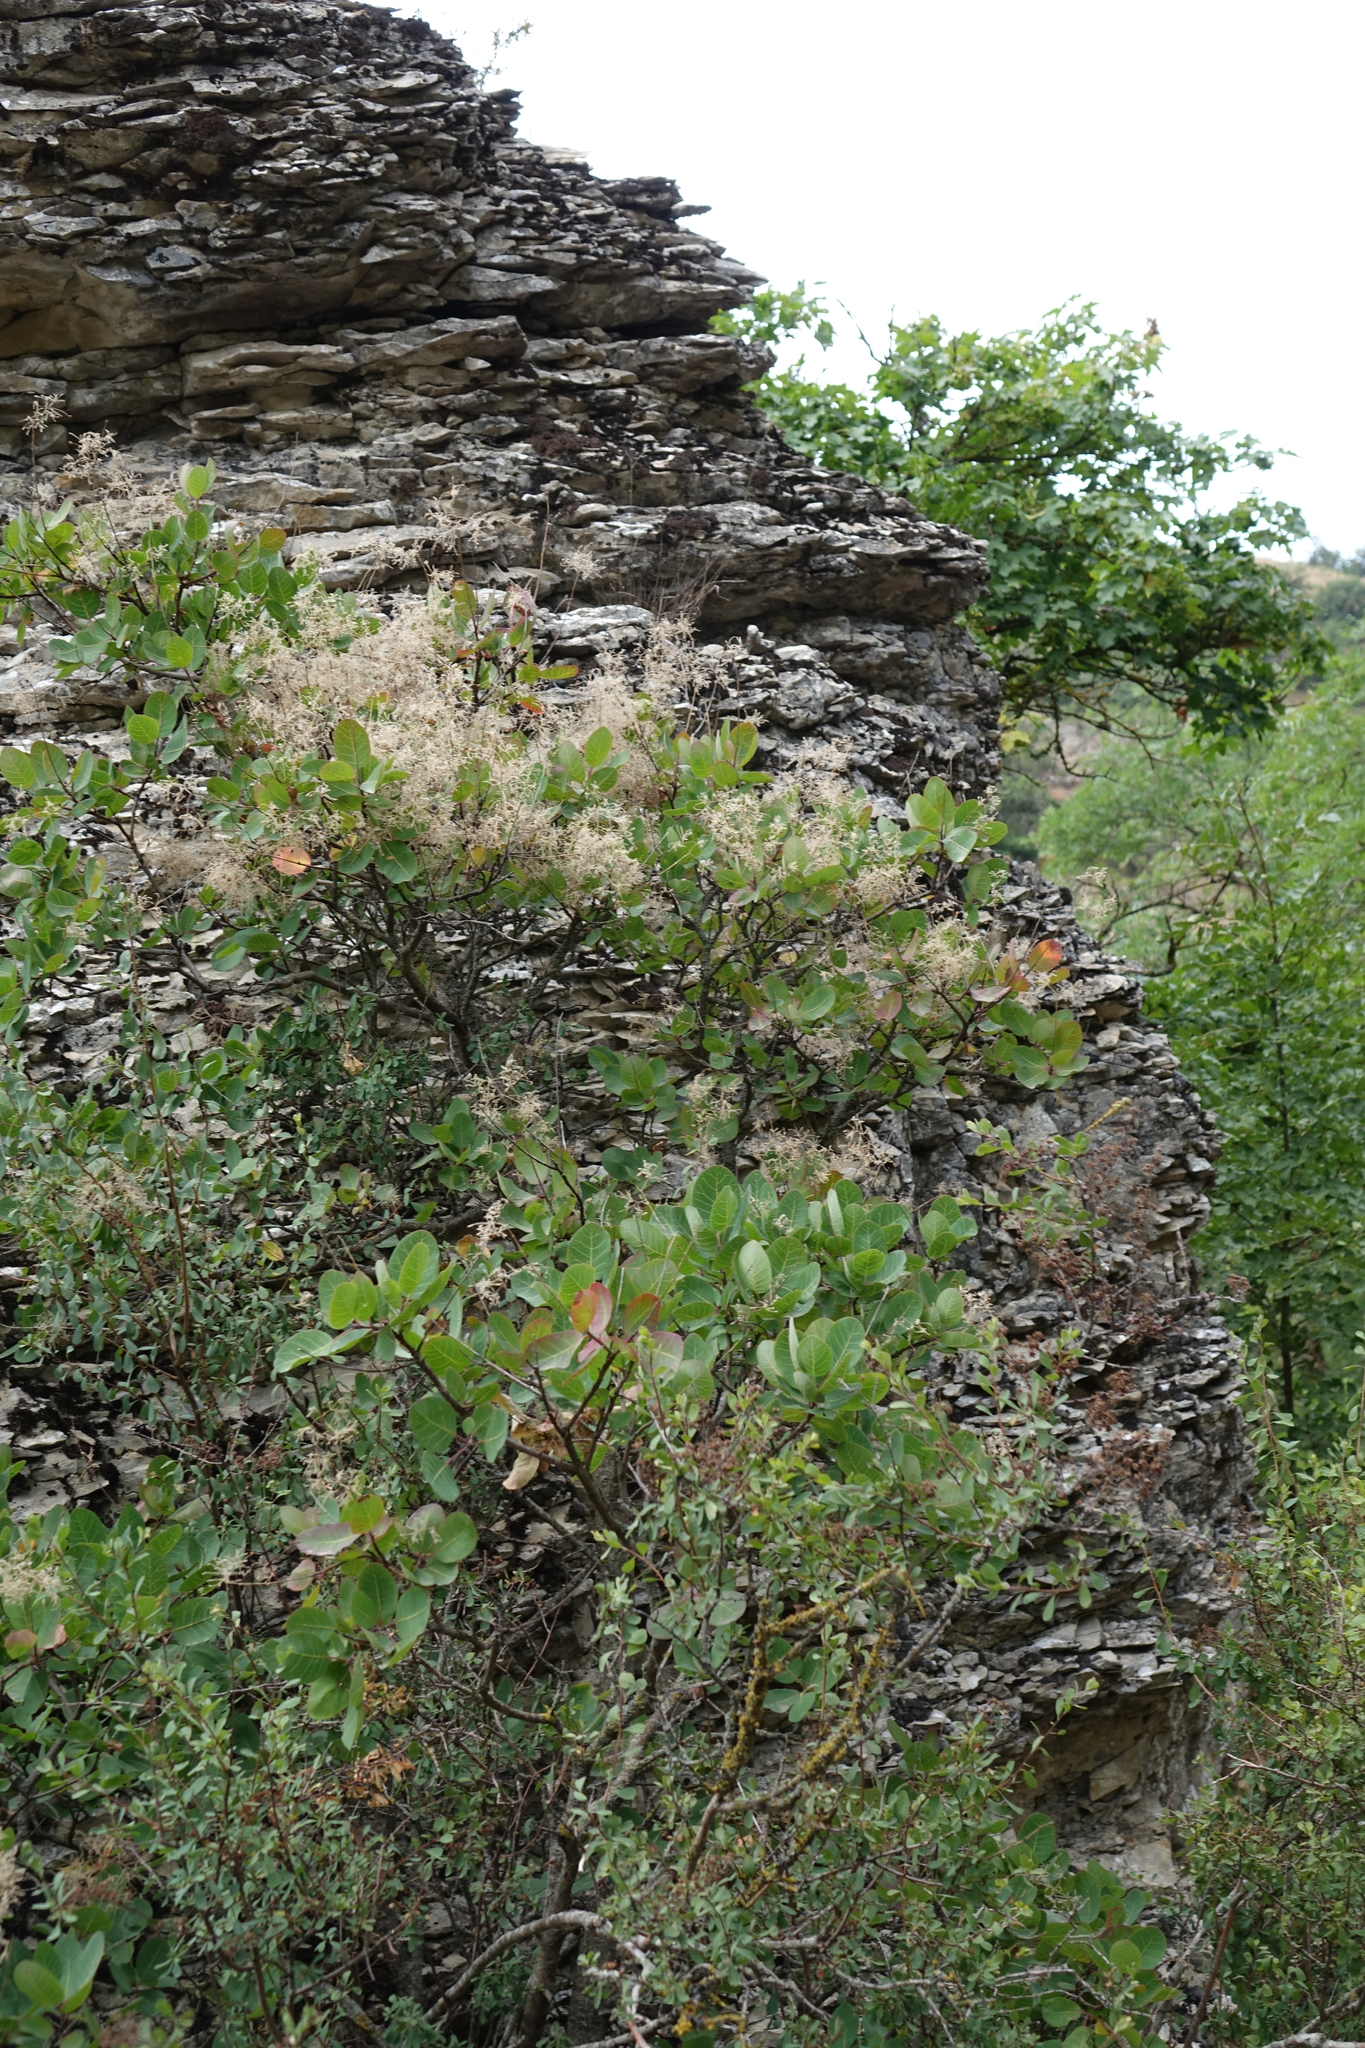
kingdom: Plantae
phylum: Tracheophyta
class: Magnoliopsida
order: Sapindales
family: Anacardiaceae
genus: Cotinus
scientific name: Cotinus coggygria
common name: Smoke-tree
